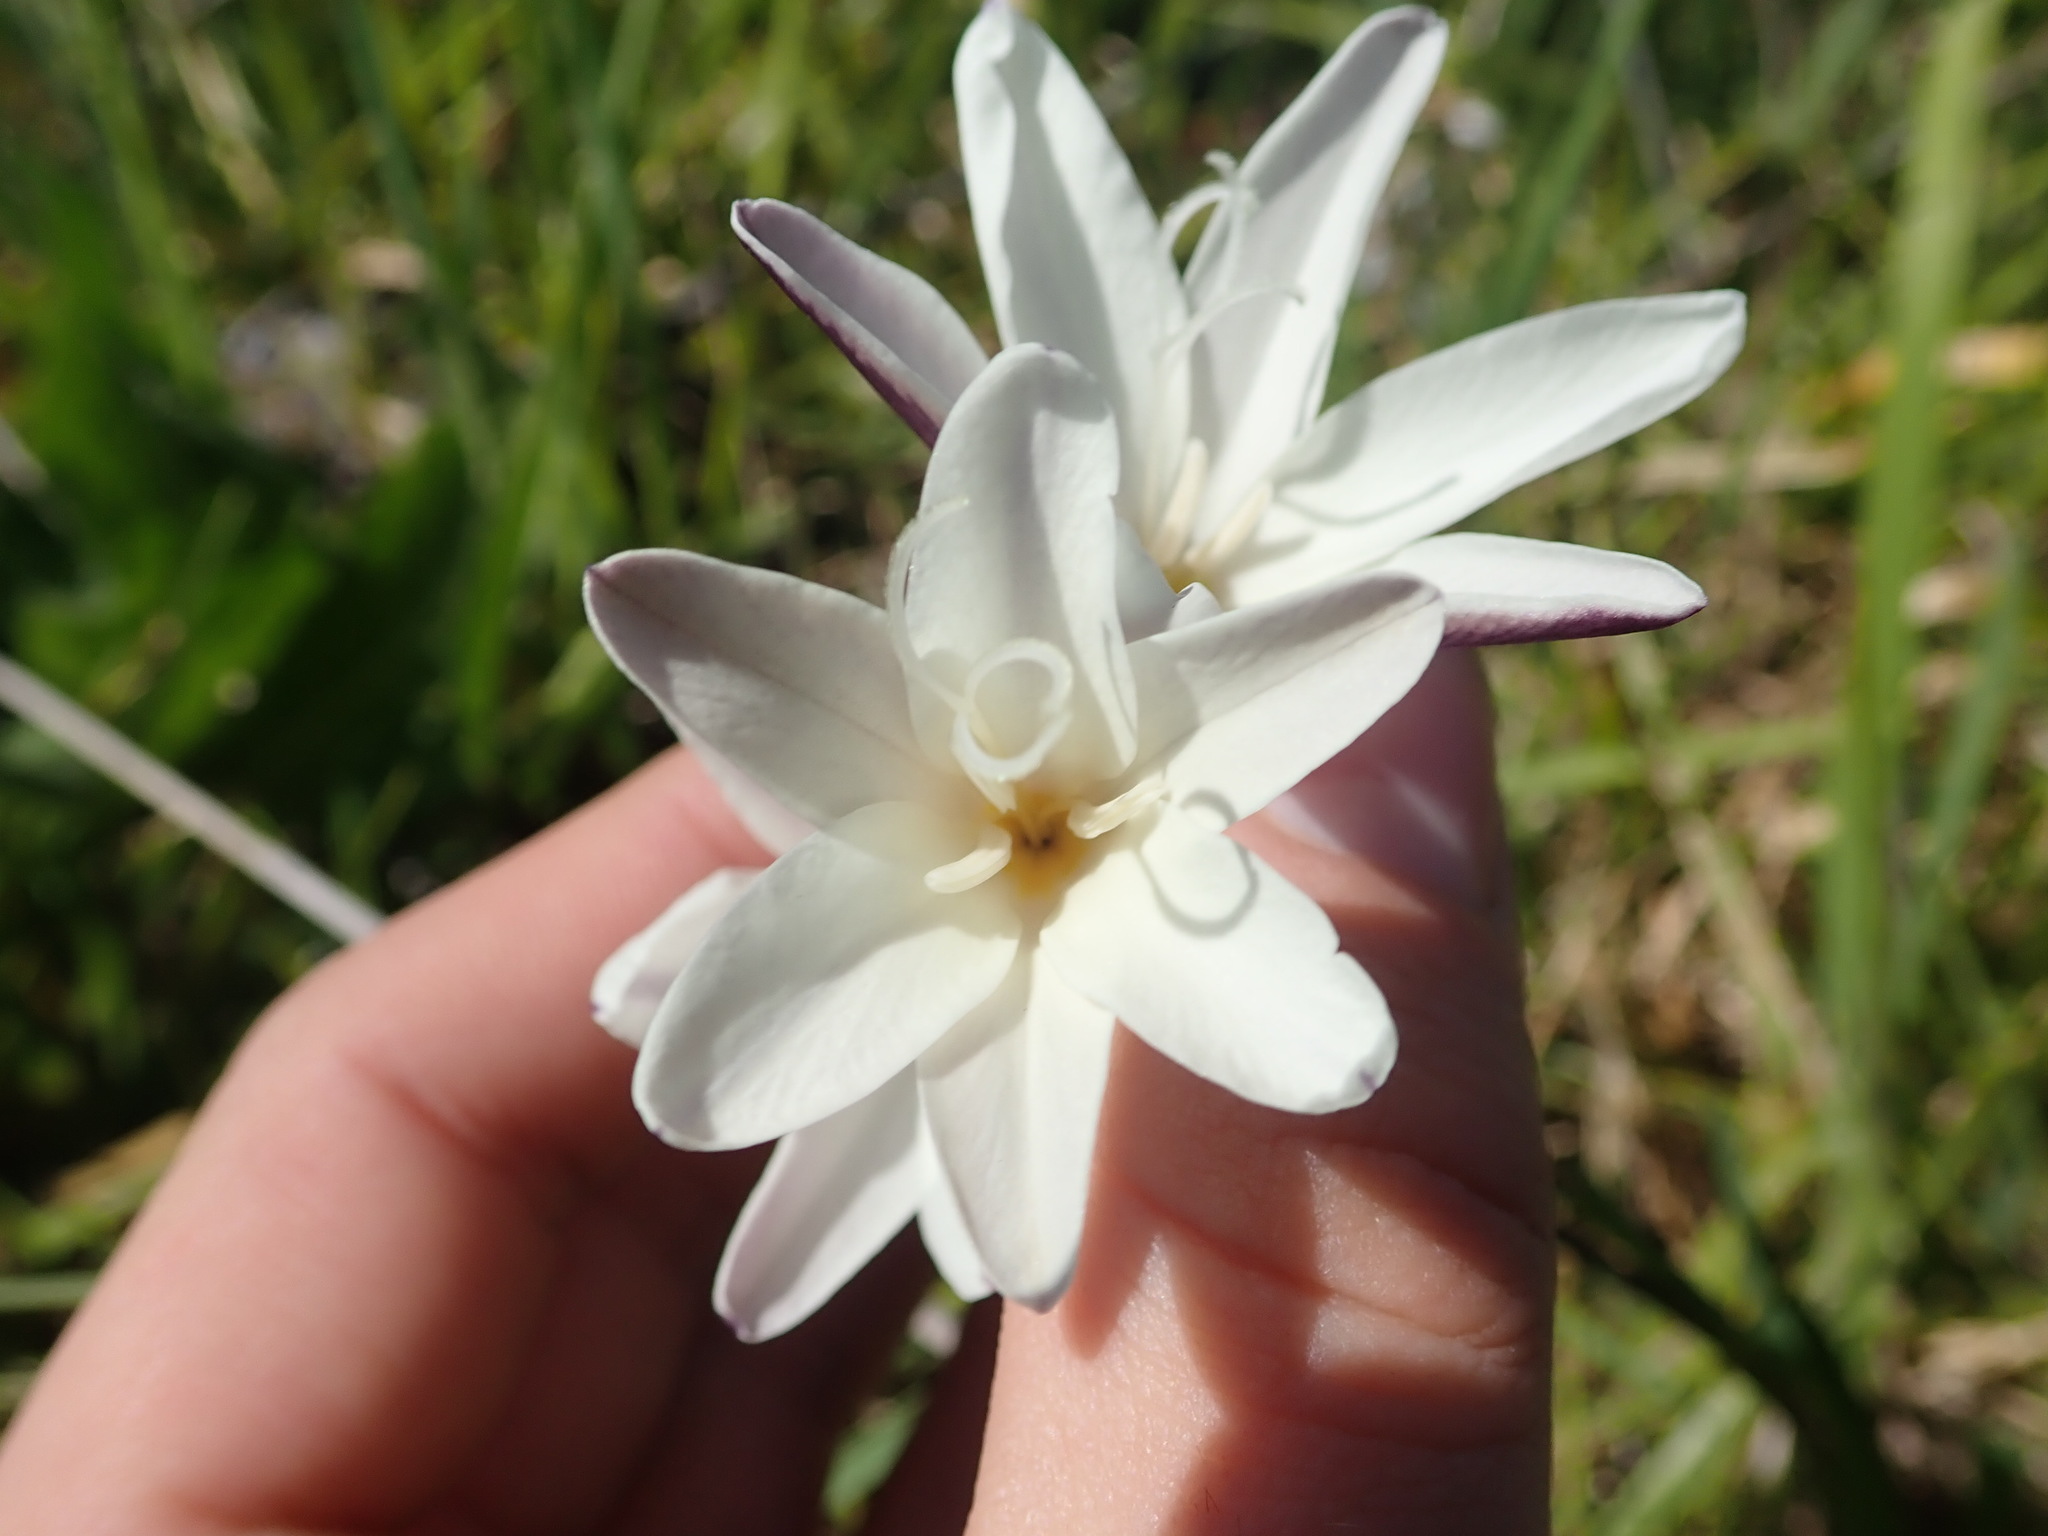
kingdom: Plantae
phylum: Tracheophyta
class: Liliopsida
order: Asparagales
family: Iridaceae
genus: Sparaxis
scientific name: Sparaxis bulbifera
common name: Harlequin-flower
